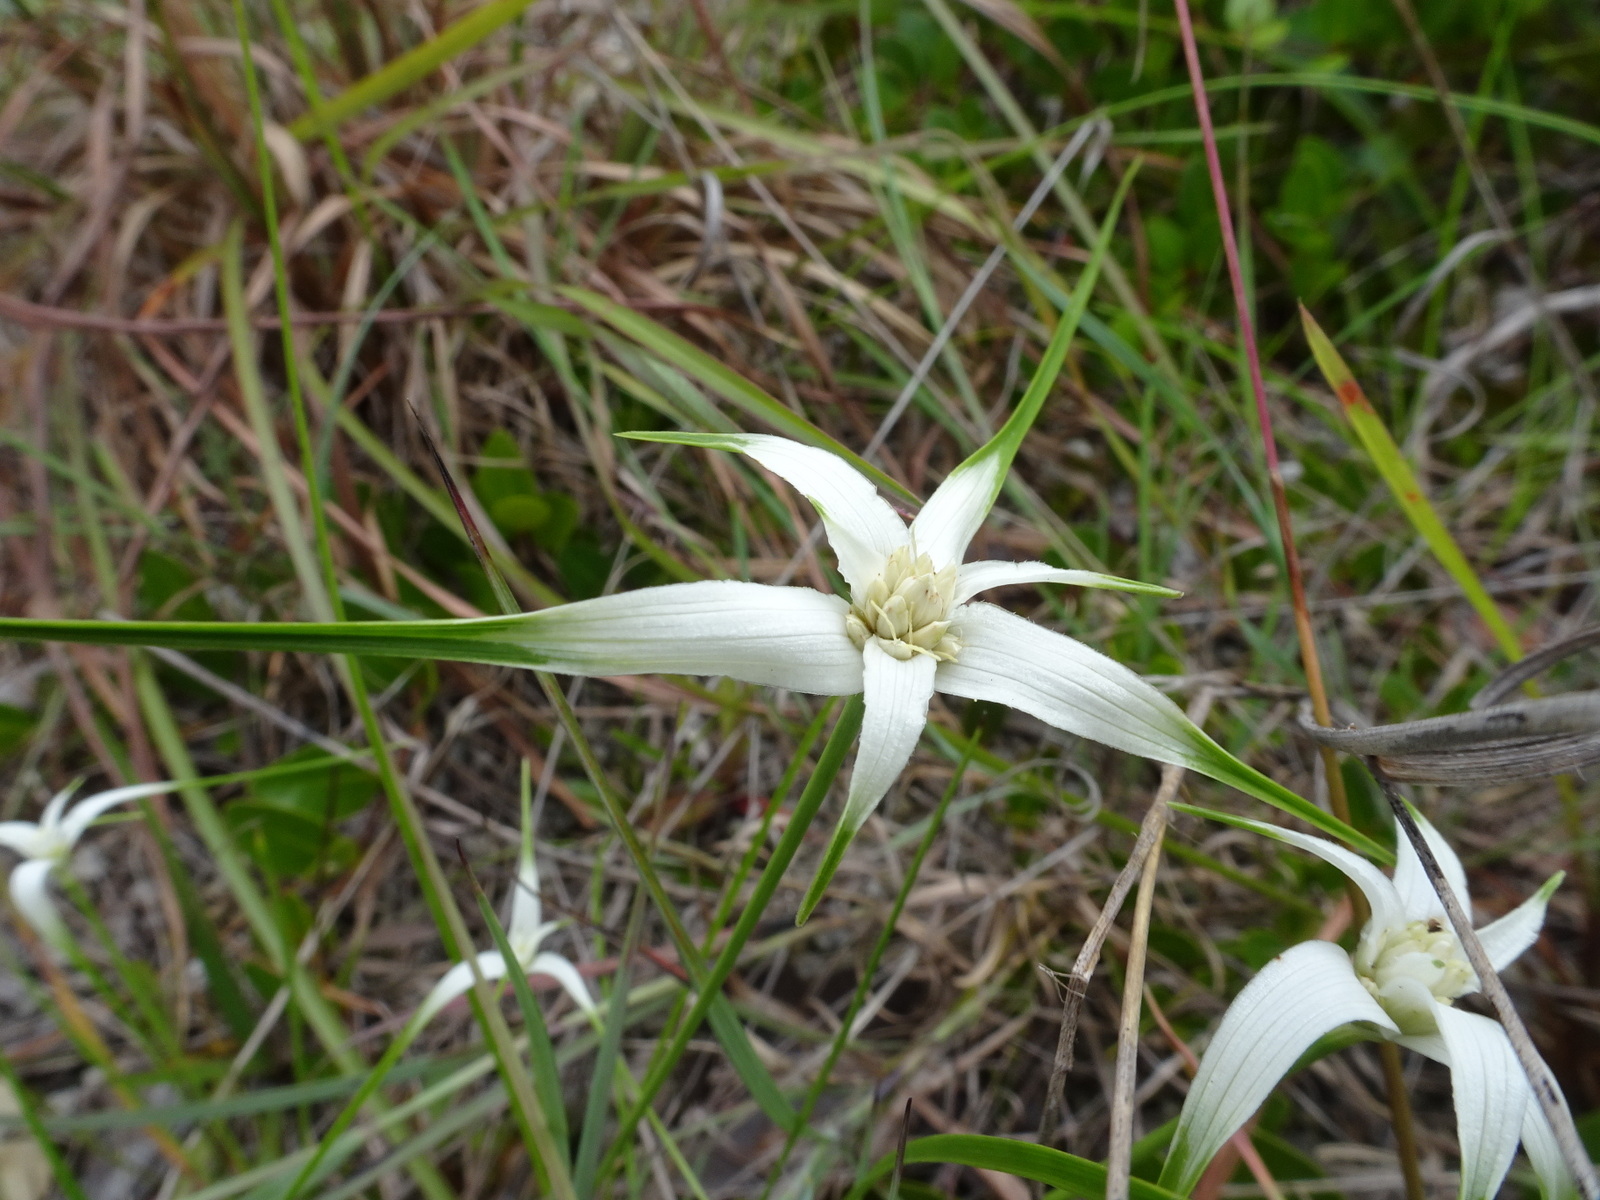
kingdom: Plantae
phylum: Tracheophyta
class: Liliopsida
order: Poales
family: Cyperaceae
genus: Rhynchospora
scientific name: Rhynchospora floridensis
